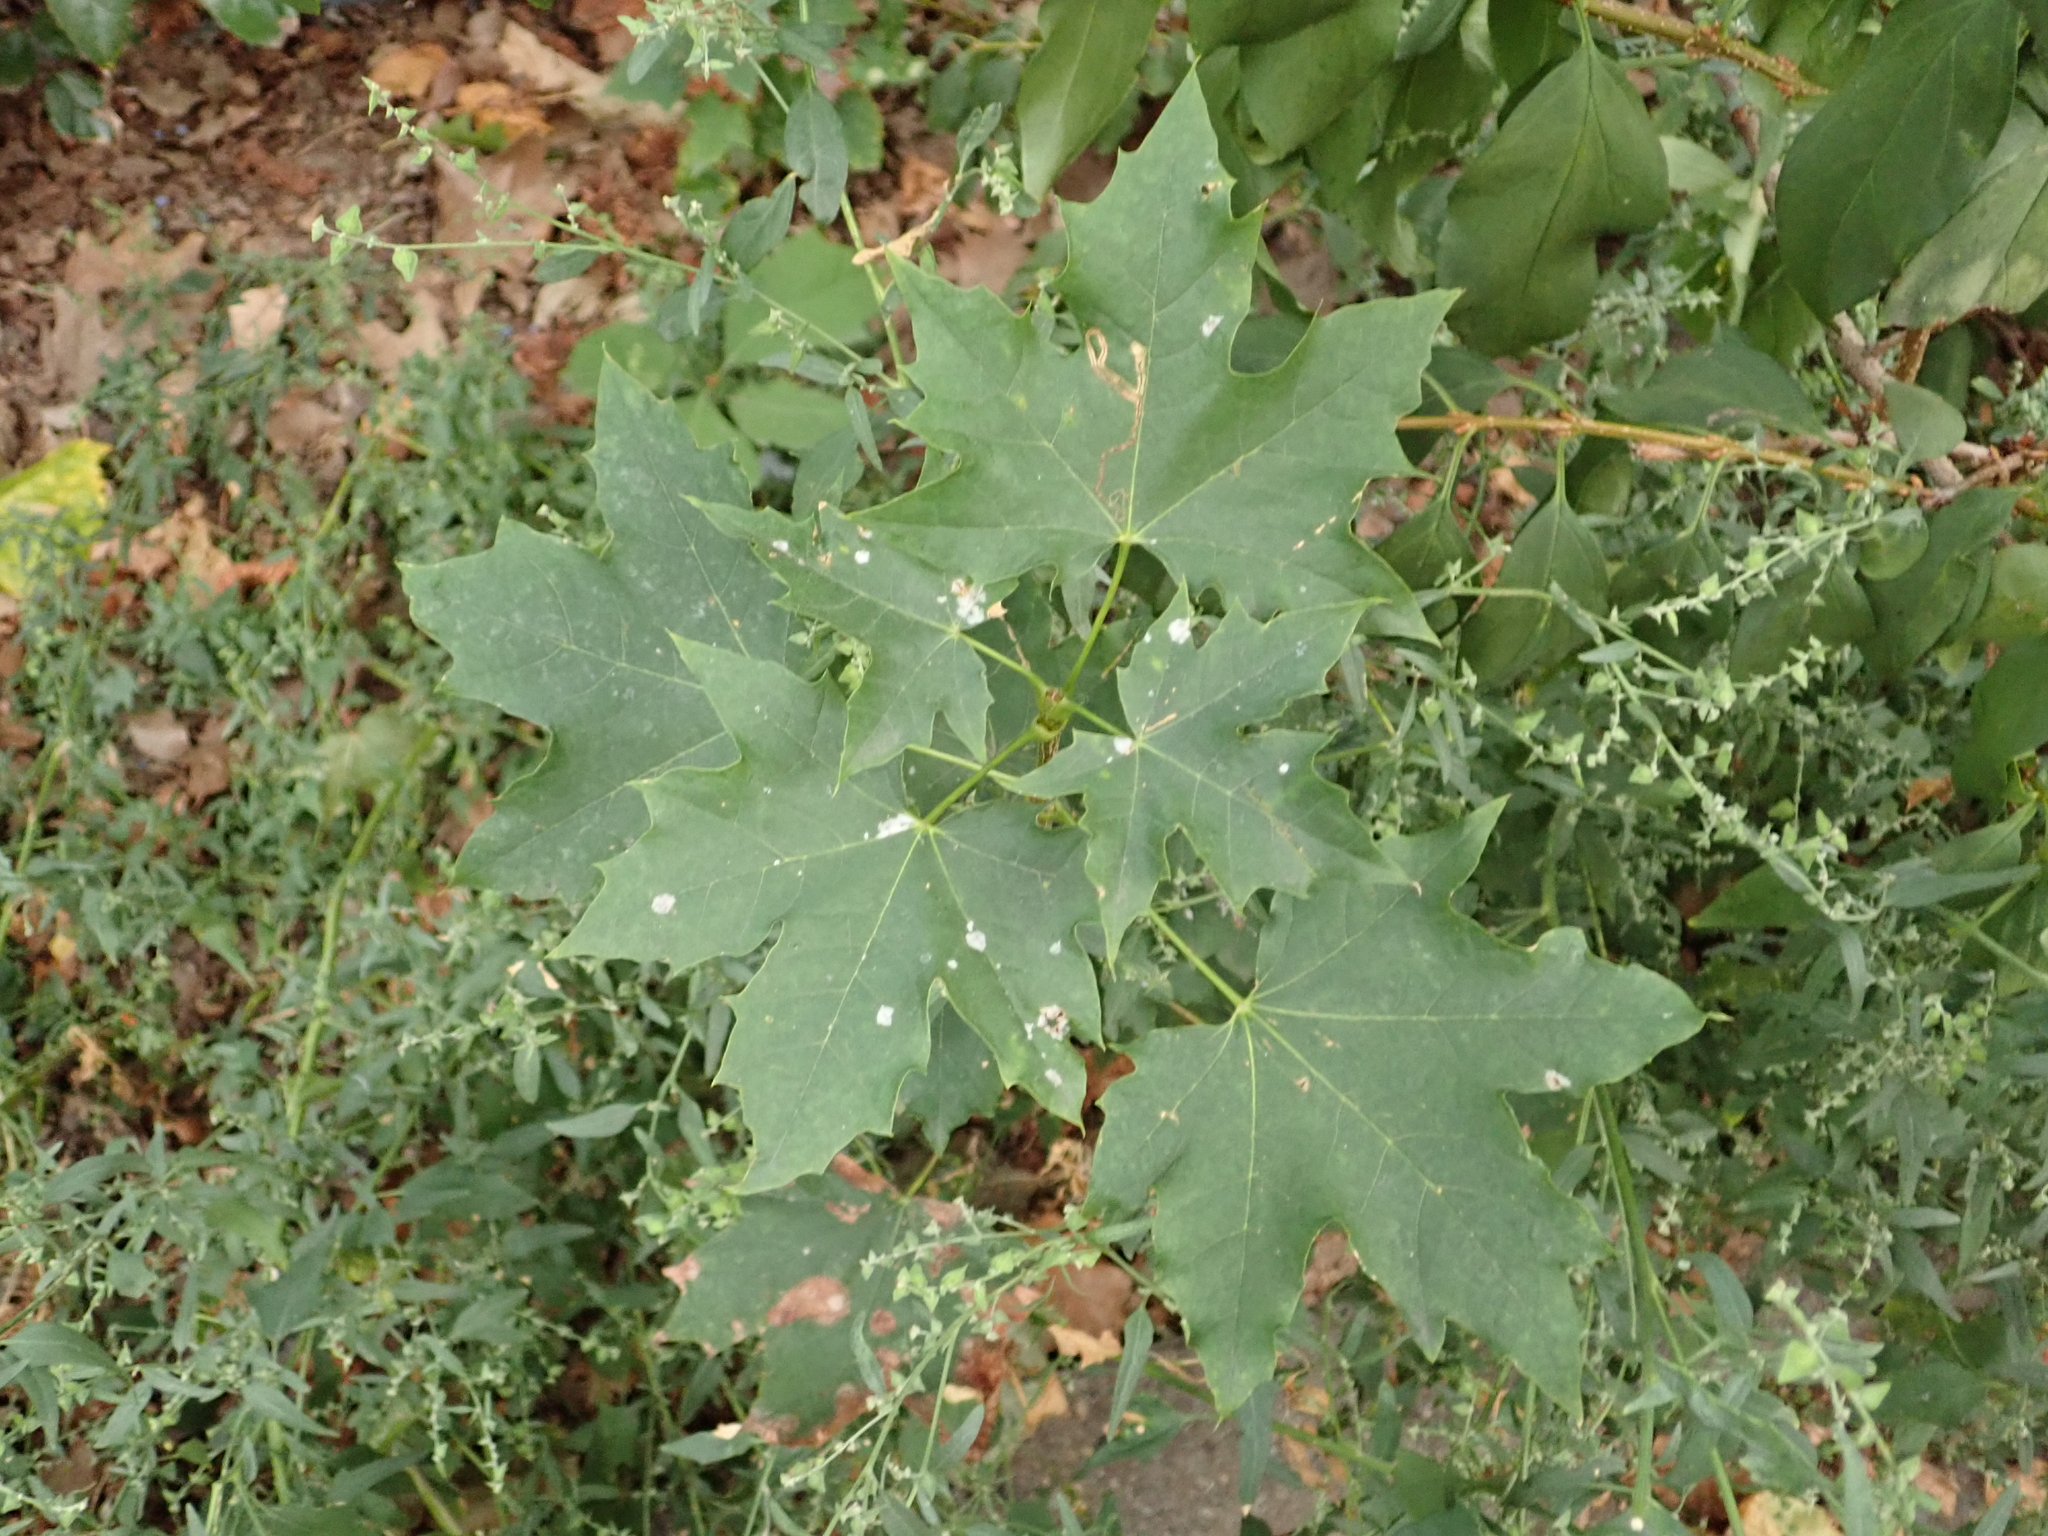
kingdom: Plantae
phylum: Tracheophyta
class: Magnoliopsida
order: Sapindales
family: Sapindaceae
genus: Acer
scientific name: Acer platanoides
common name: Norway maple
